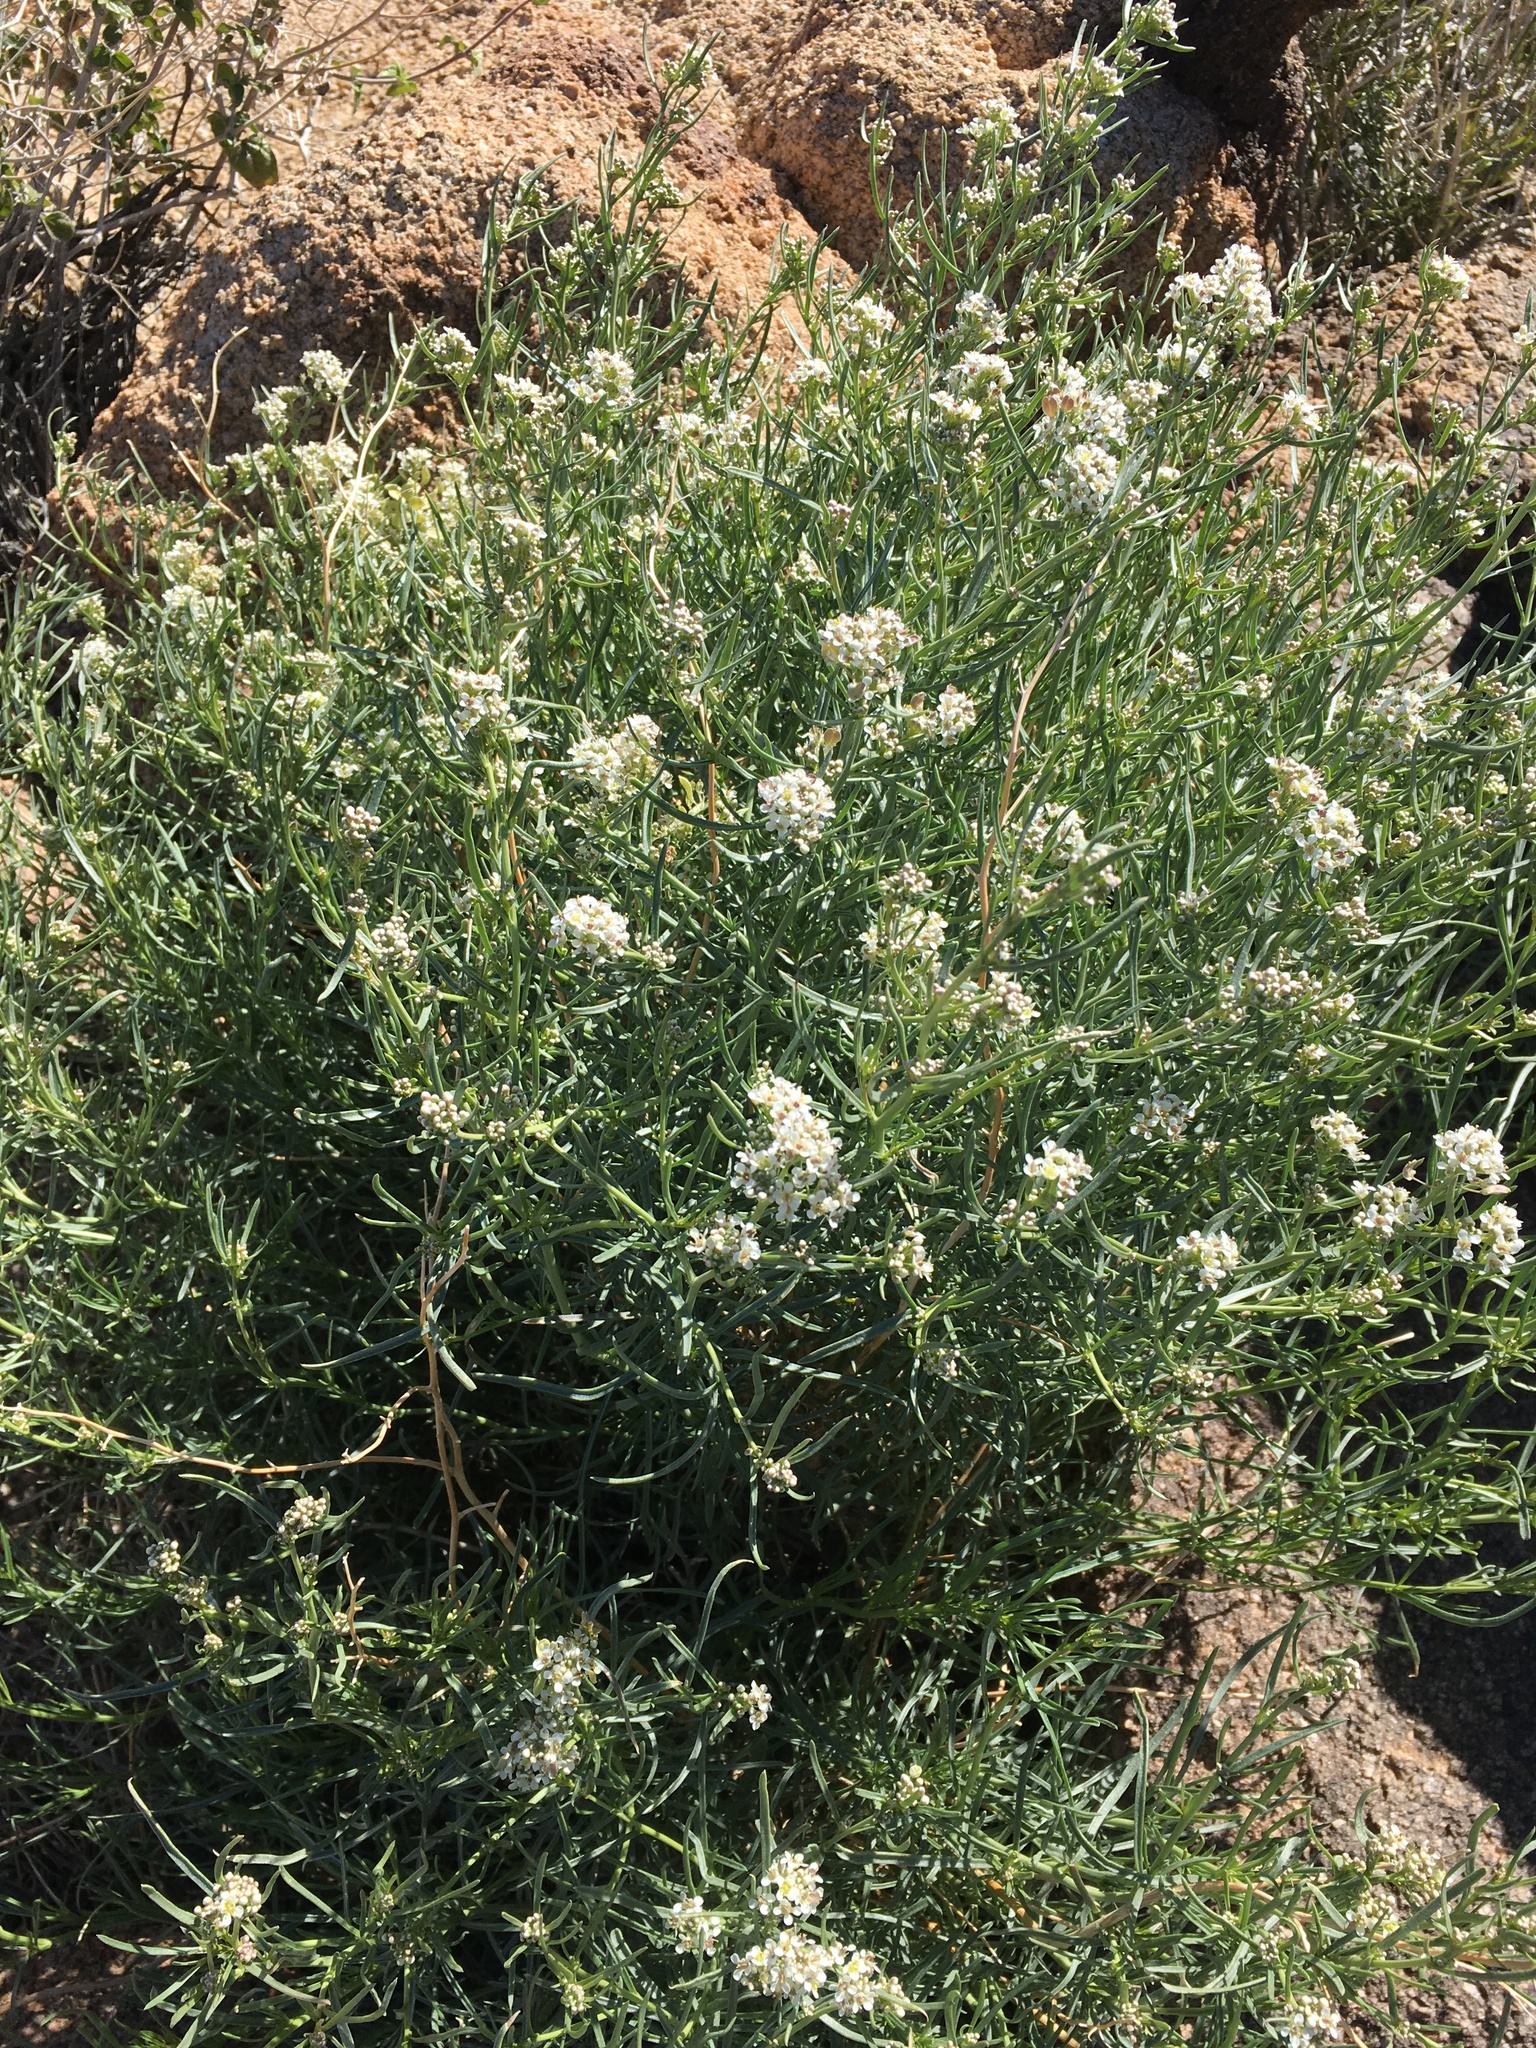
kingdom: Plantae
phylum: Tracheophyta
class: Magnoliopsida
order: Brassicales
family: Brassicaceae
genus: Lepidium
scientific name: Lepidium fremontii
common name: Fremont's pepperwort
